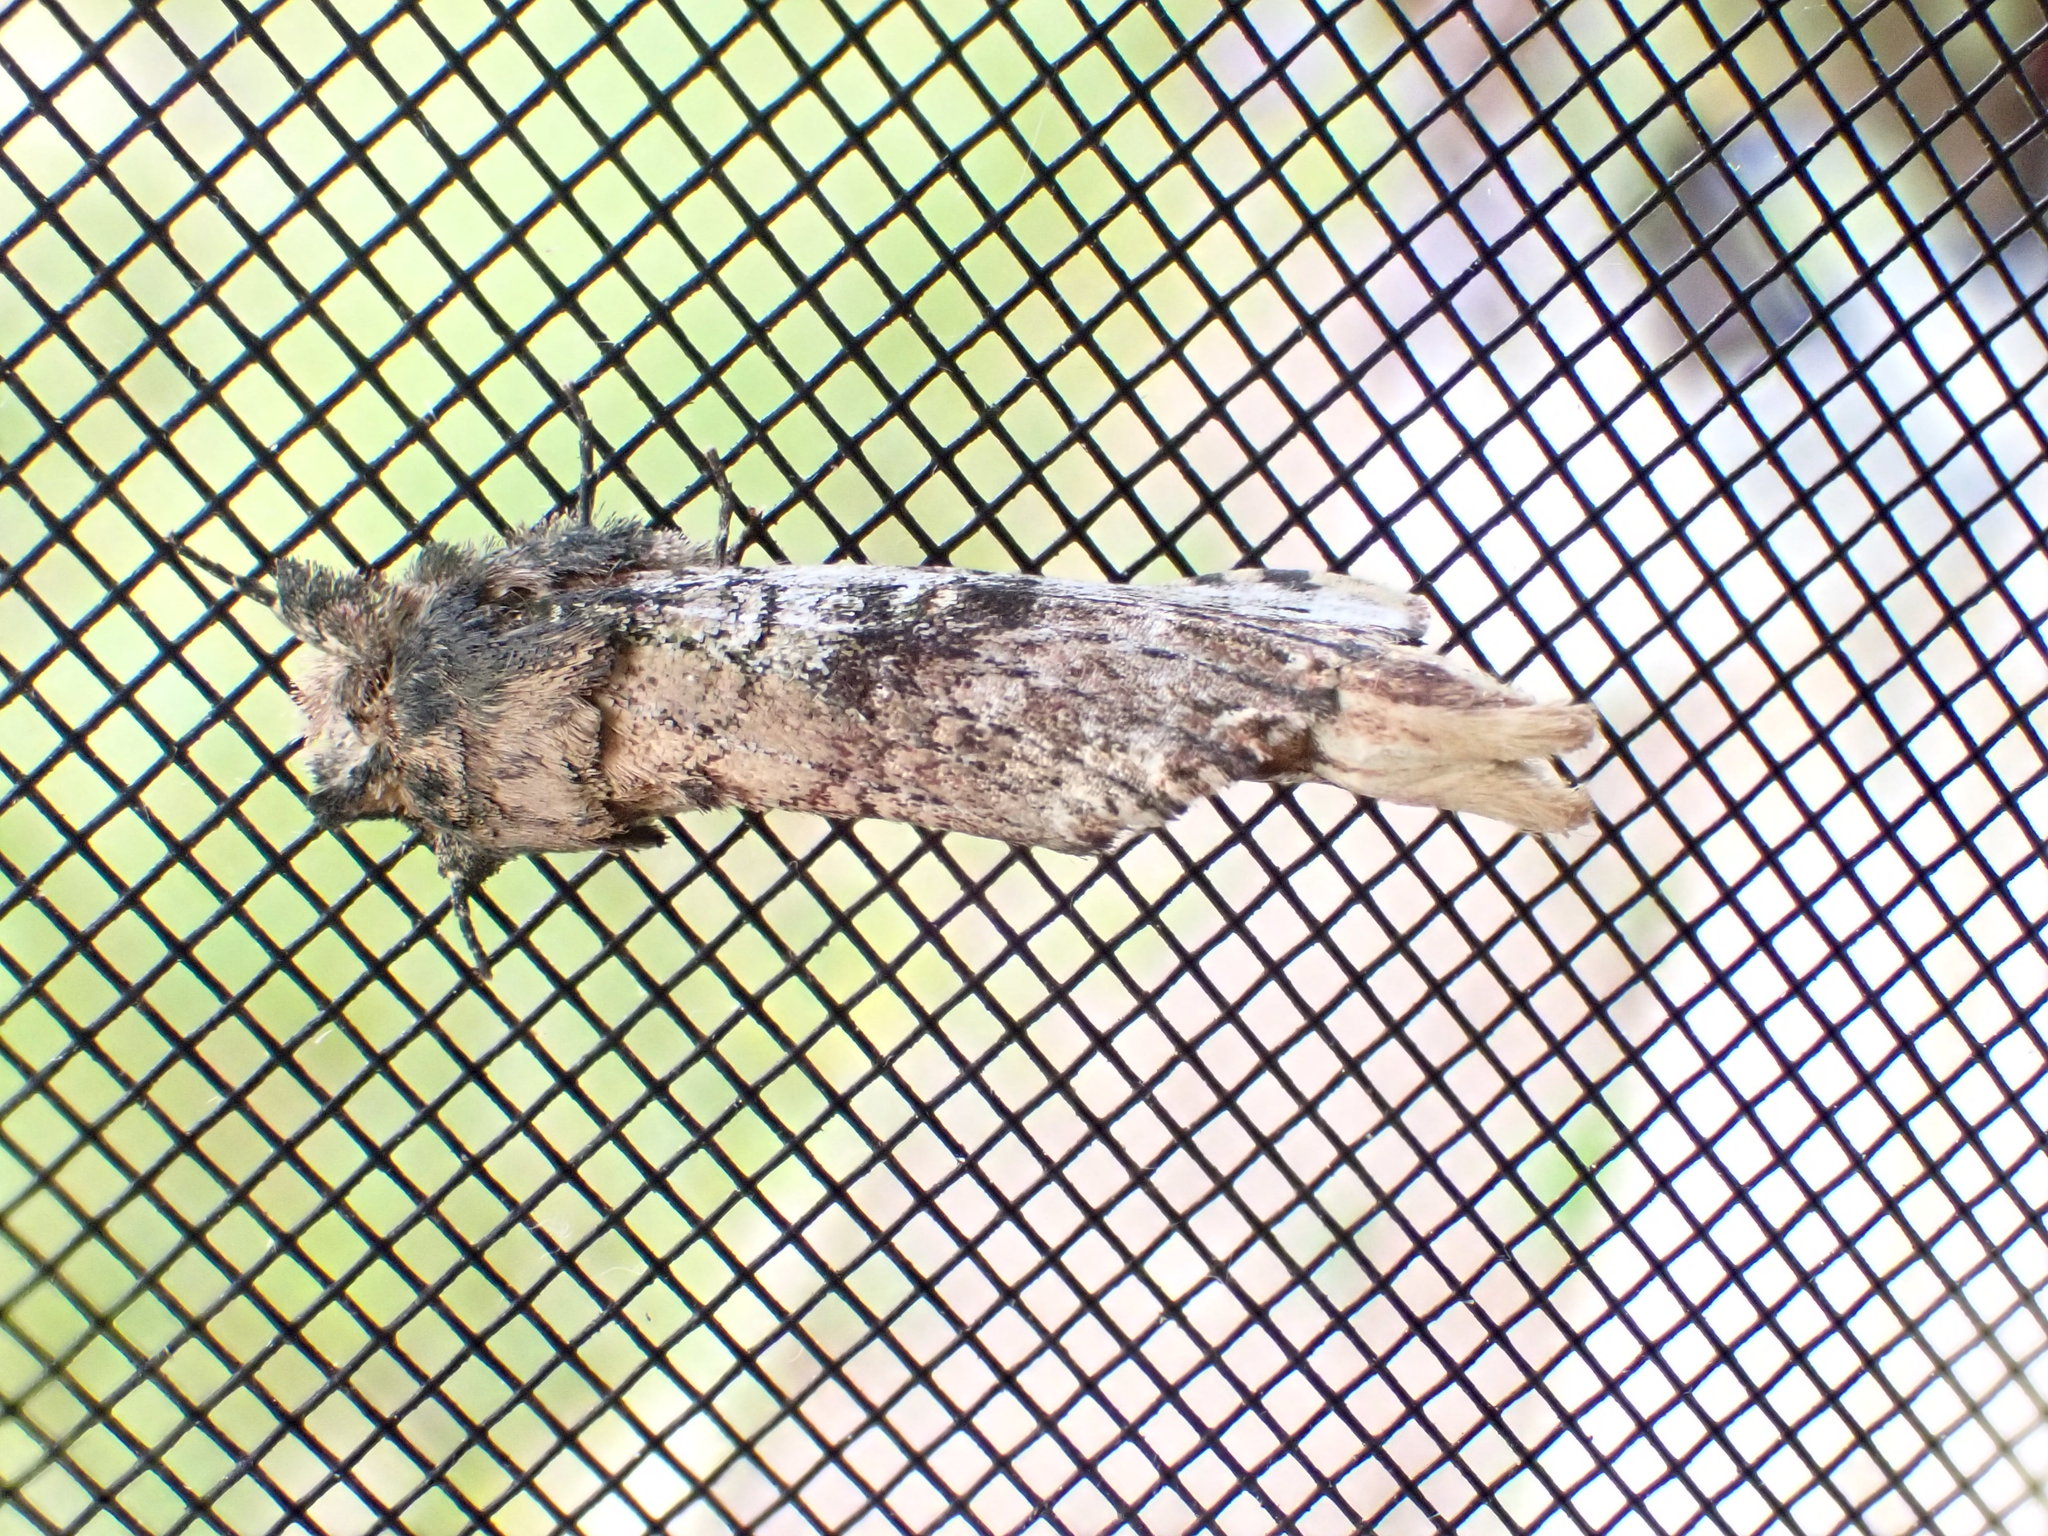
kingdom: Animalia
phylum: Arthropoda
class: Insecta
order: Lepidoptera
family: Notodontidae
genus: Schizura
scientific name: Schizura ipomaeae
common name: Morning-glory prominent
